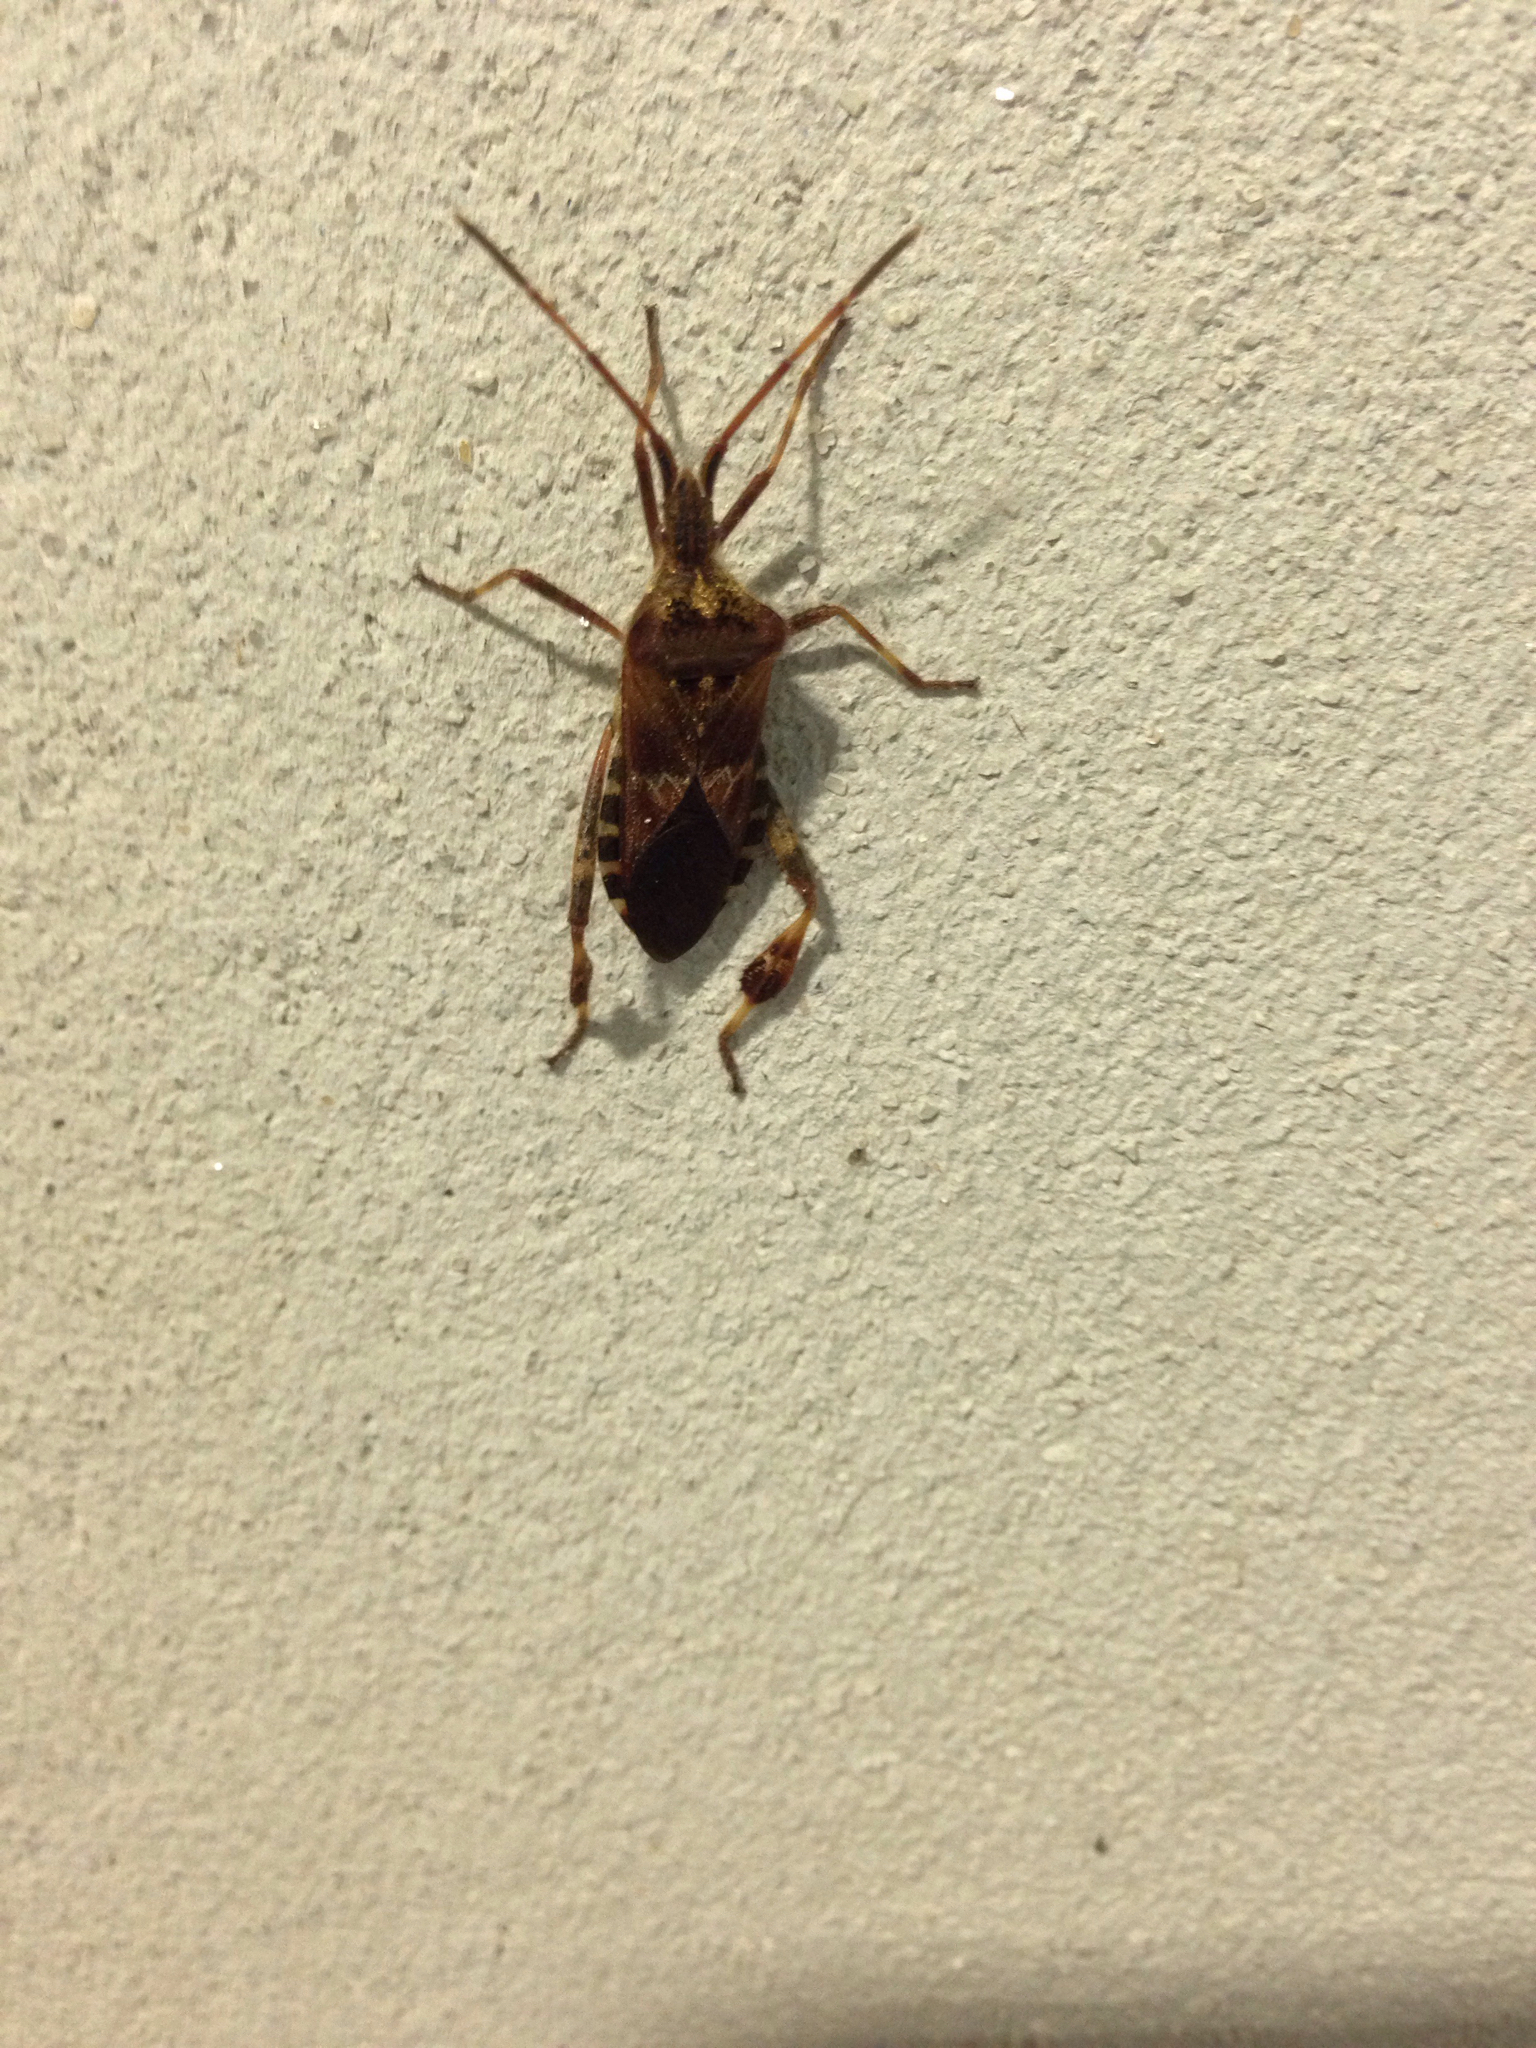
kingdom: Animalia
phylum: Arthropoda
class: Insecta
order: Hemiptera
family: Coreidae
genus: Leptoglossus
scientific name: Leptoglossus occidentalis
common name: Western conifer-seed bug
